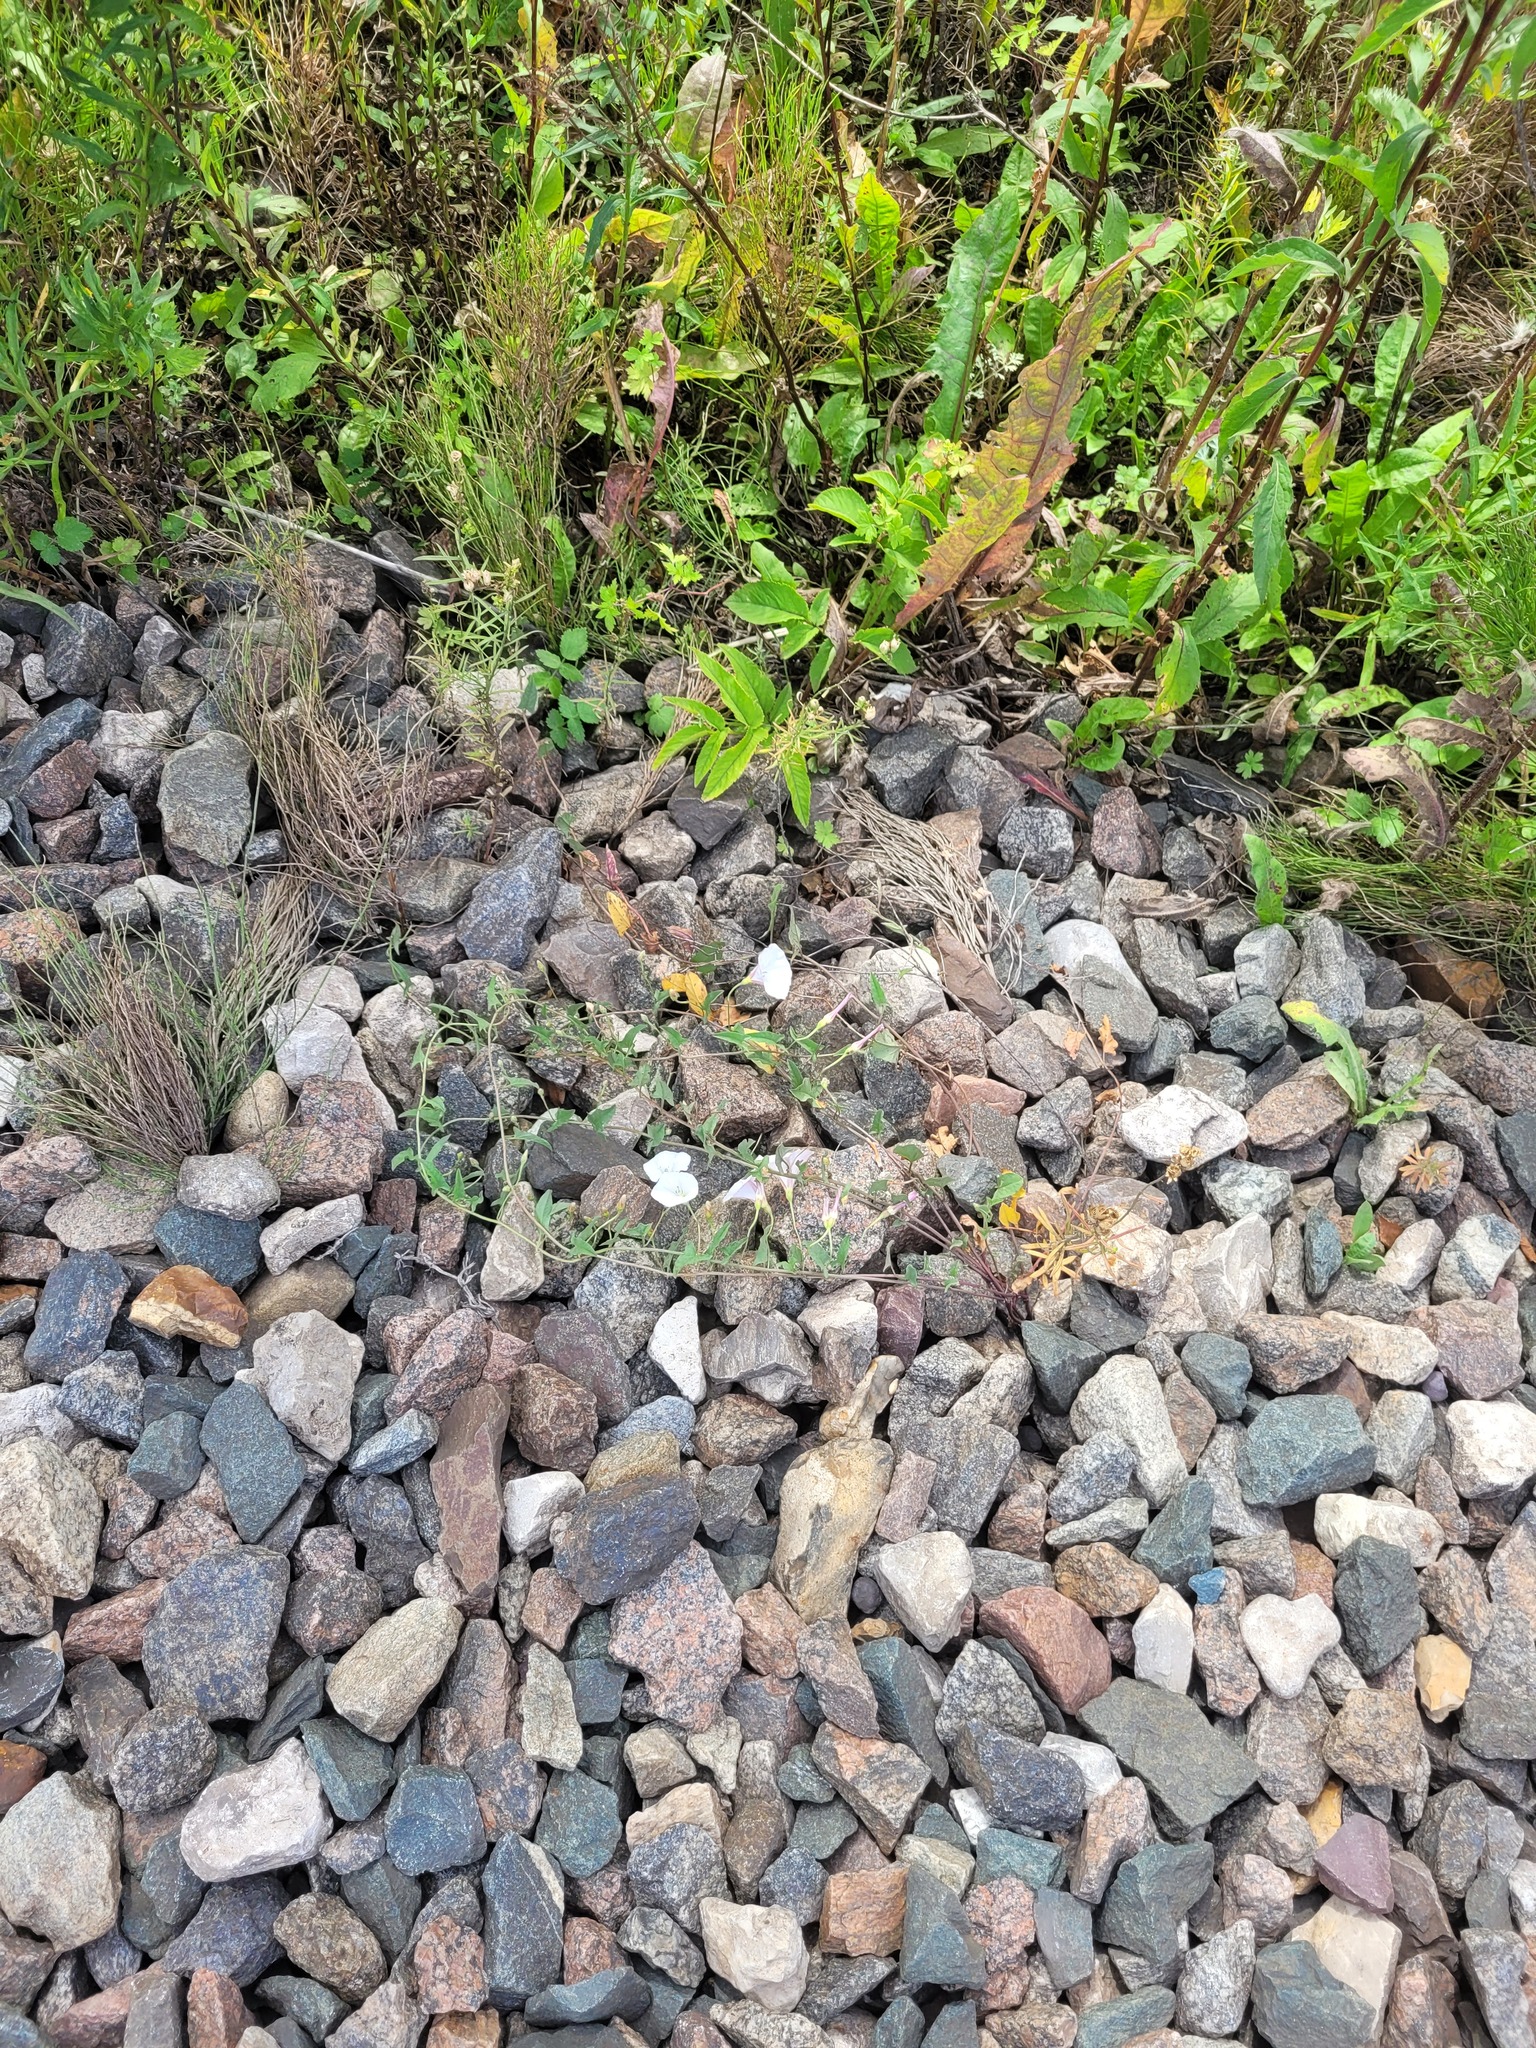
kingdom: Plantae
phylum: Tracheophyta
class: Magnoliopsida
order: Solanales
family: Convolvulaceae
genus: Convolvulus
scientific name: Convolvulus arvensis
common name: Field bindweed
